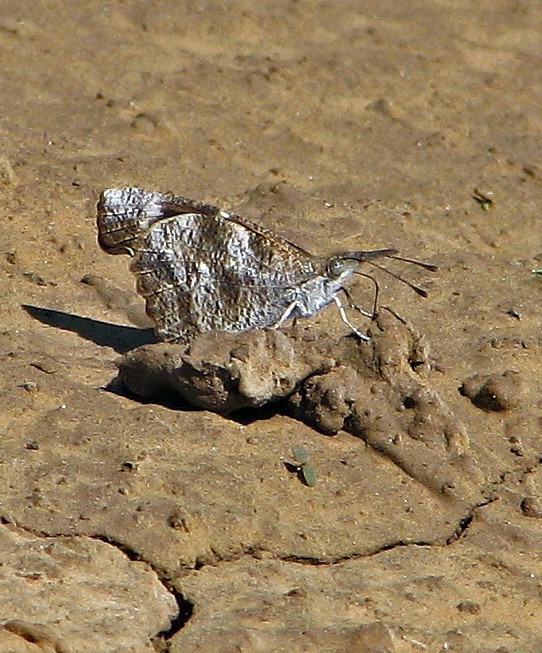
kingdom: Animalia
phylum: Arthropoda
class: Insecta
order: Lepidoptera
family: Nymphalidae
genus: Libytheana
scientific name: Libytheana carinenta
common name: American snout
